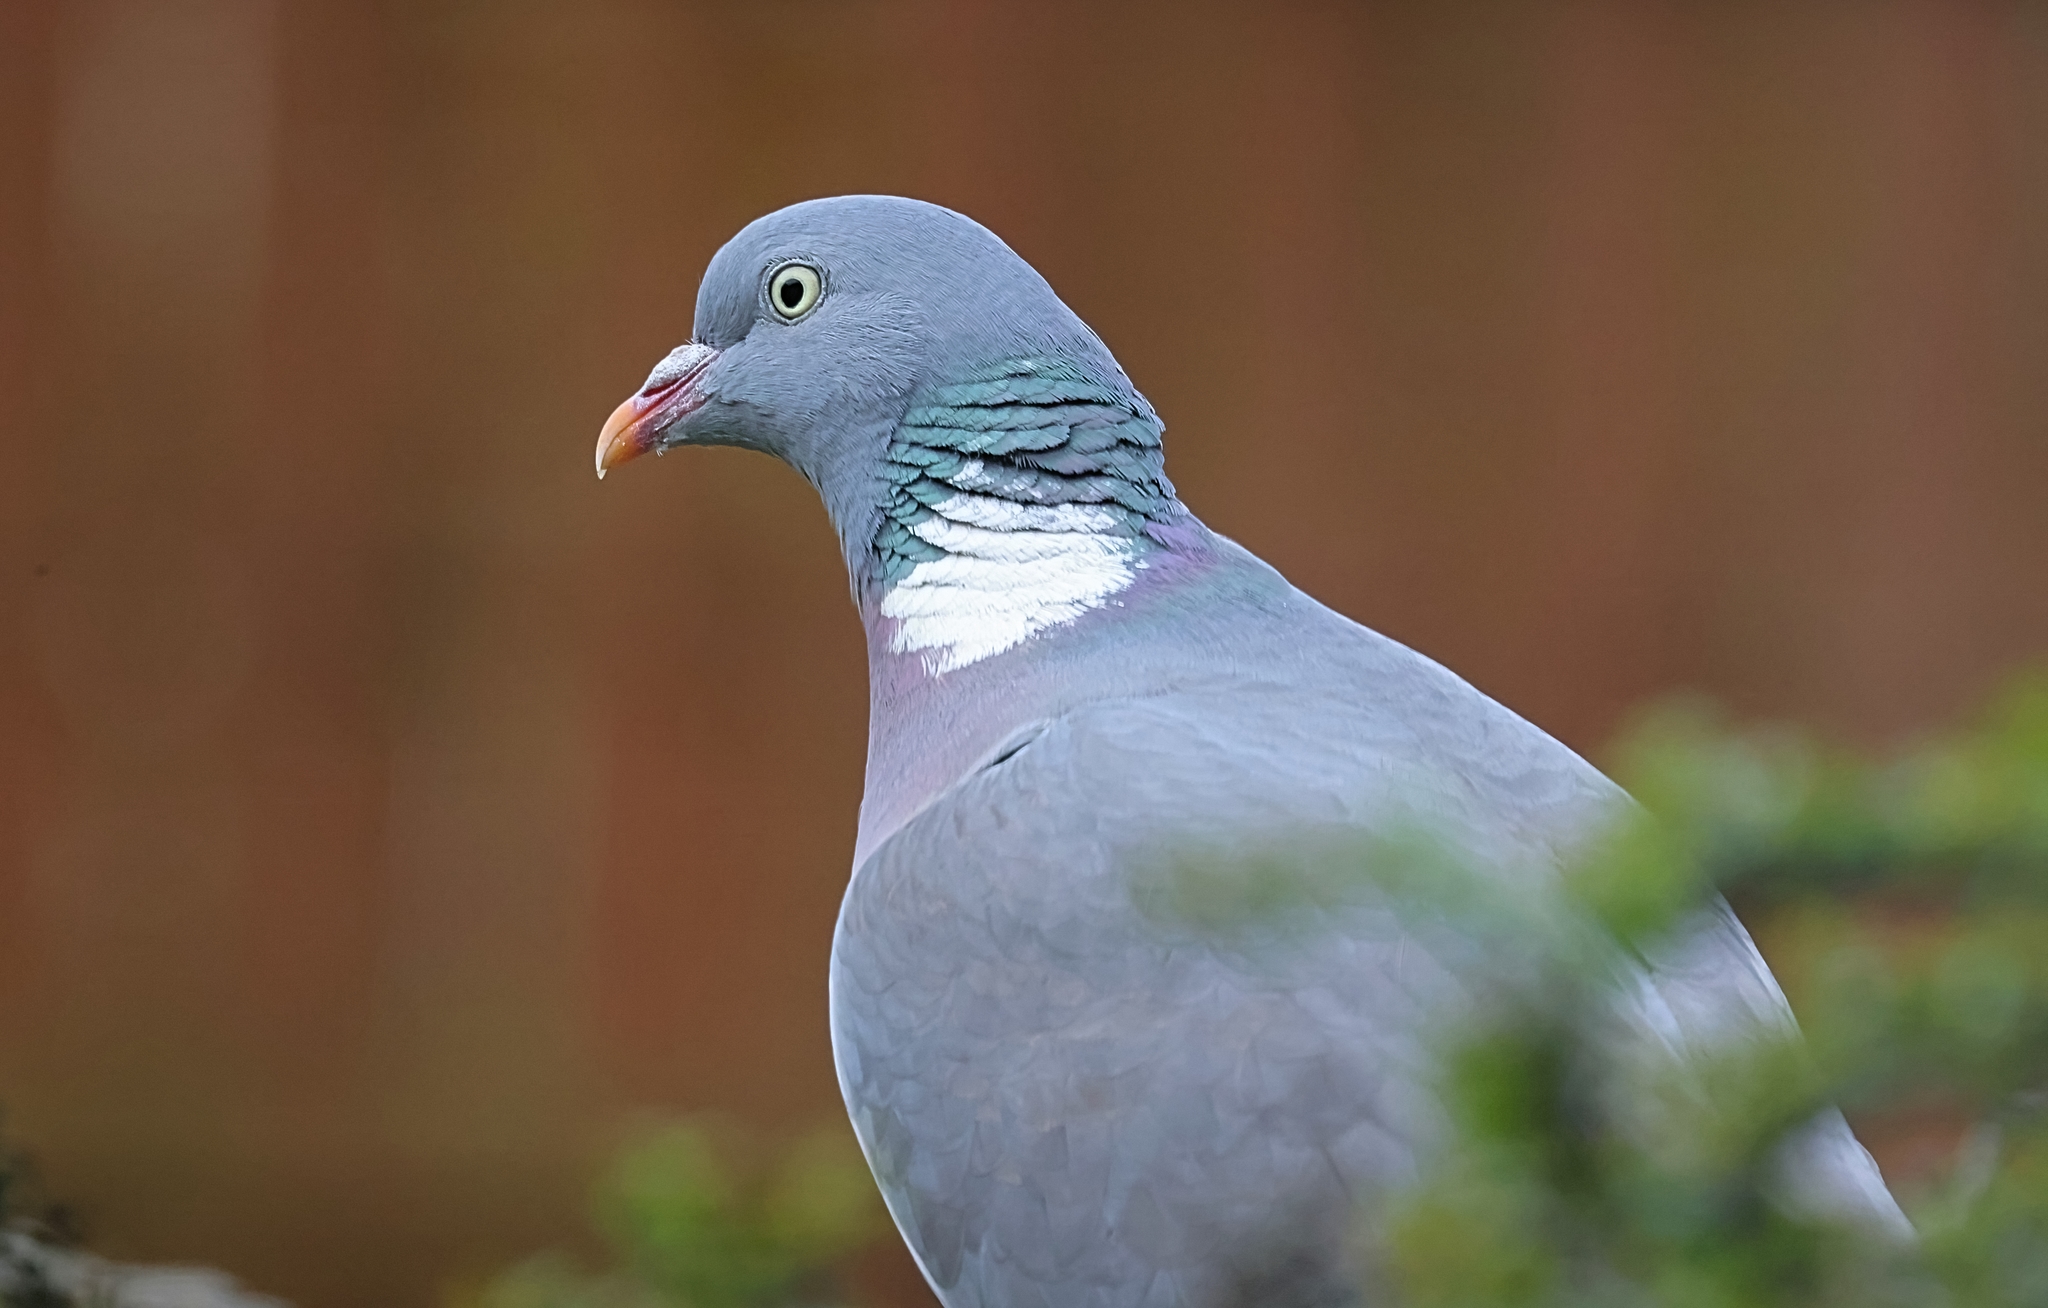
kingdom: Animalia
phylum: Chordata
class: Aves
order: Columbiformes
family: Columbidae
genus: Columba
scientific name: Columba palumbus
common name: Common wood pigeon
